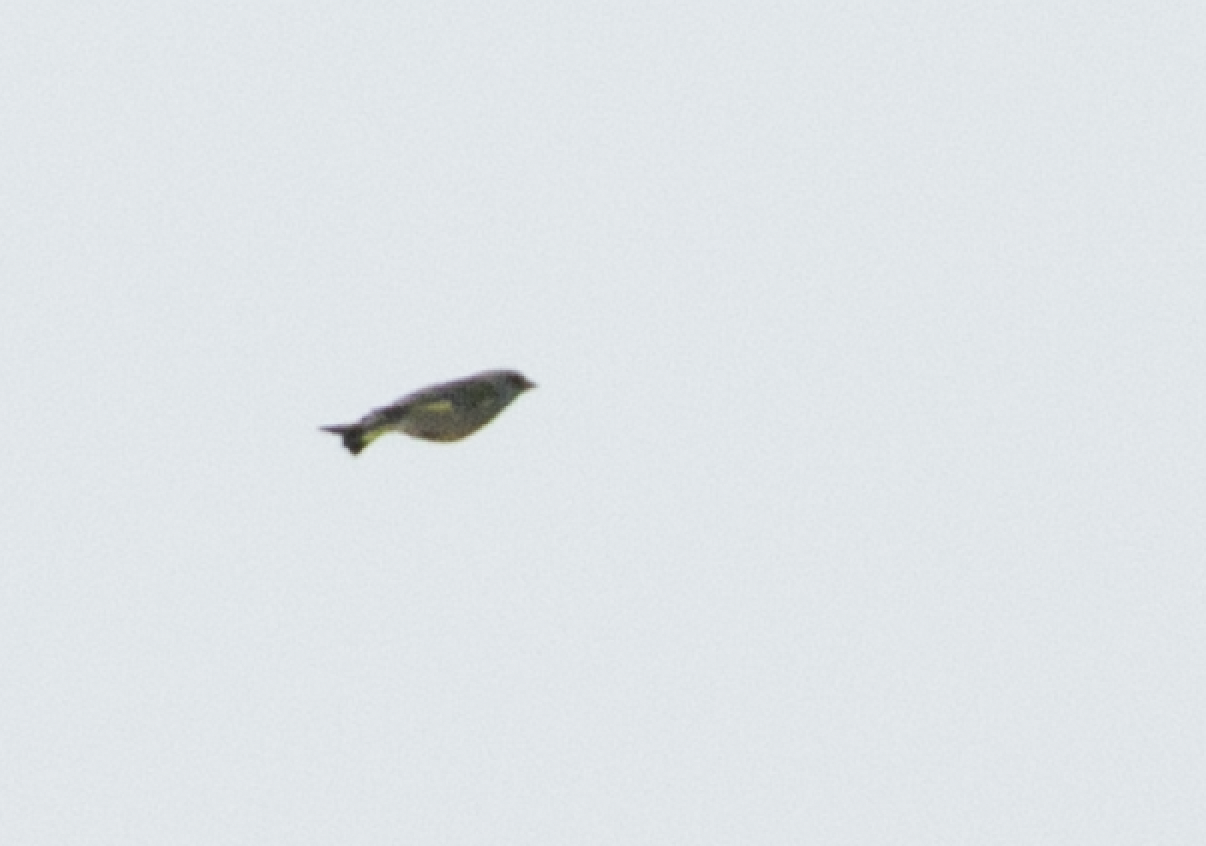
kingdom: Plantae
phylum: Tracheophyta
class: Liliopsida
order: Poales
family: Poaceae
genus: Chloris
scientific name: Chloris chloris
